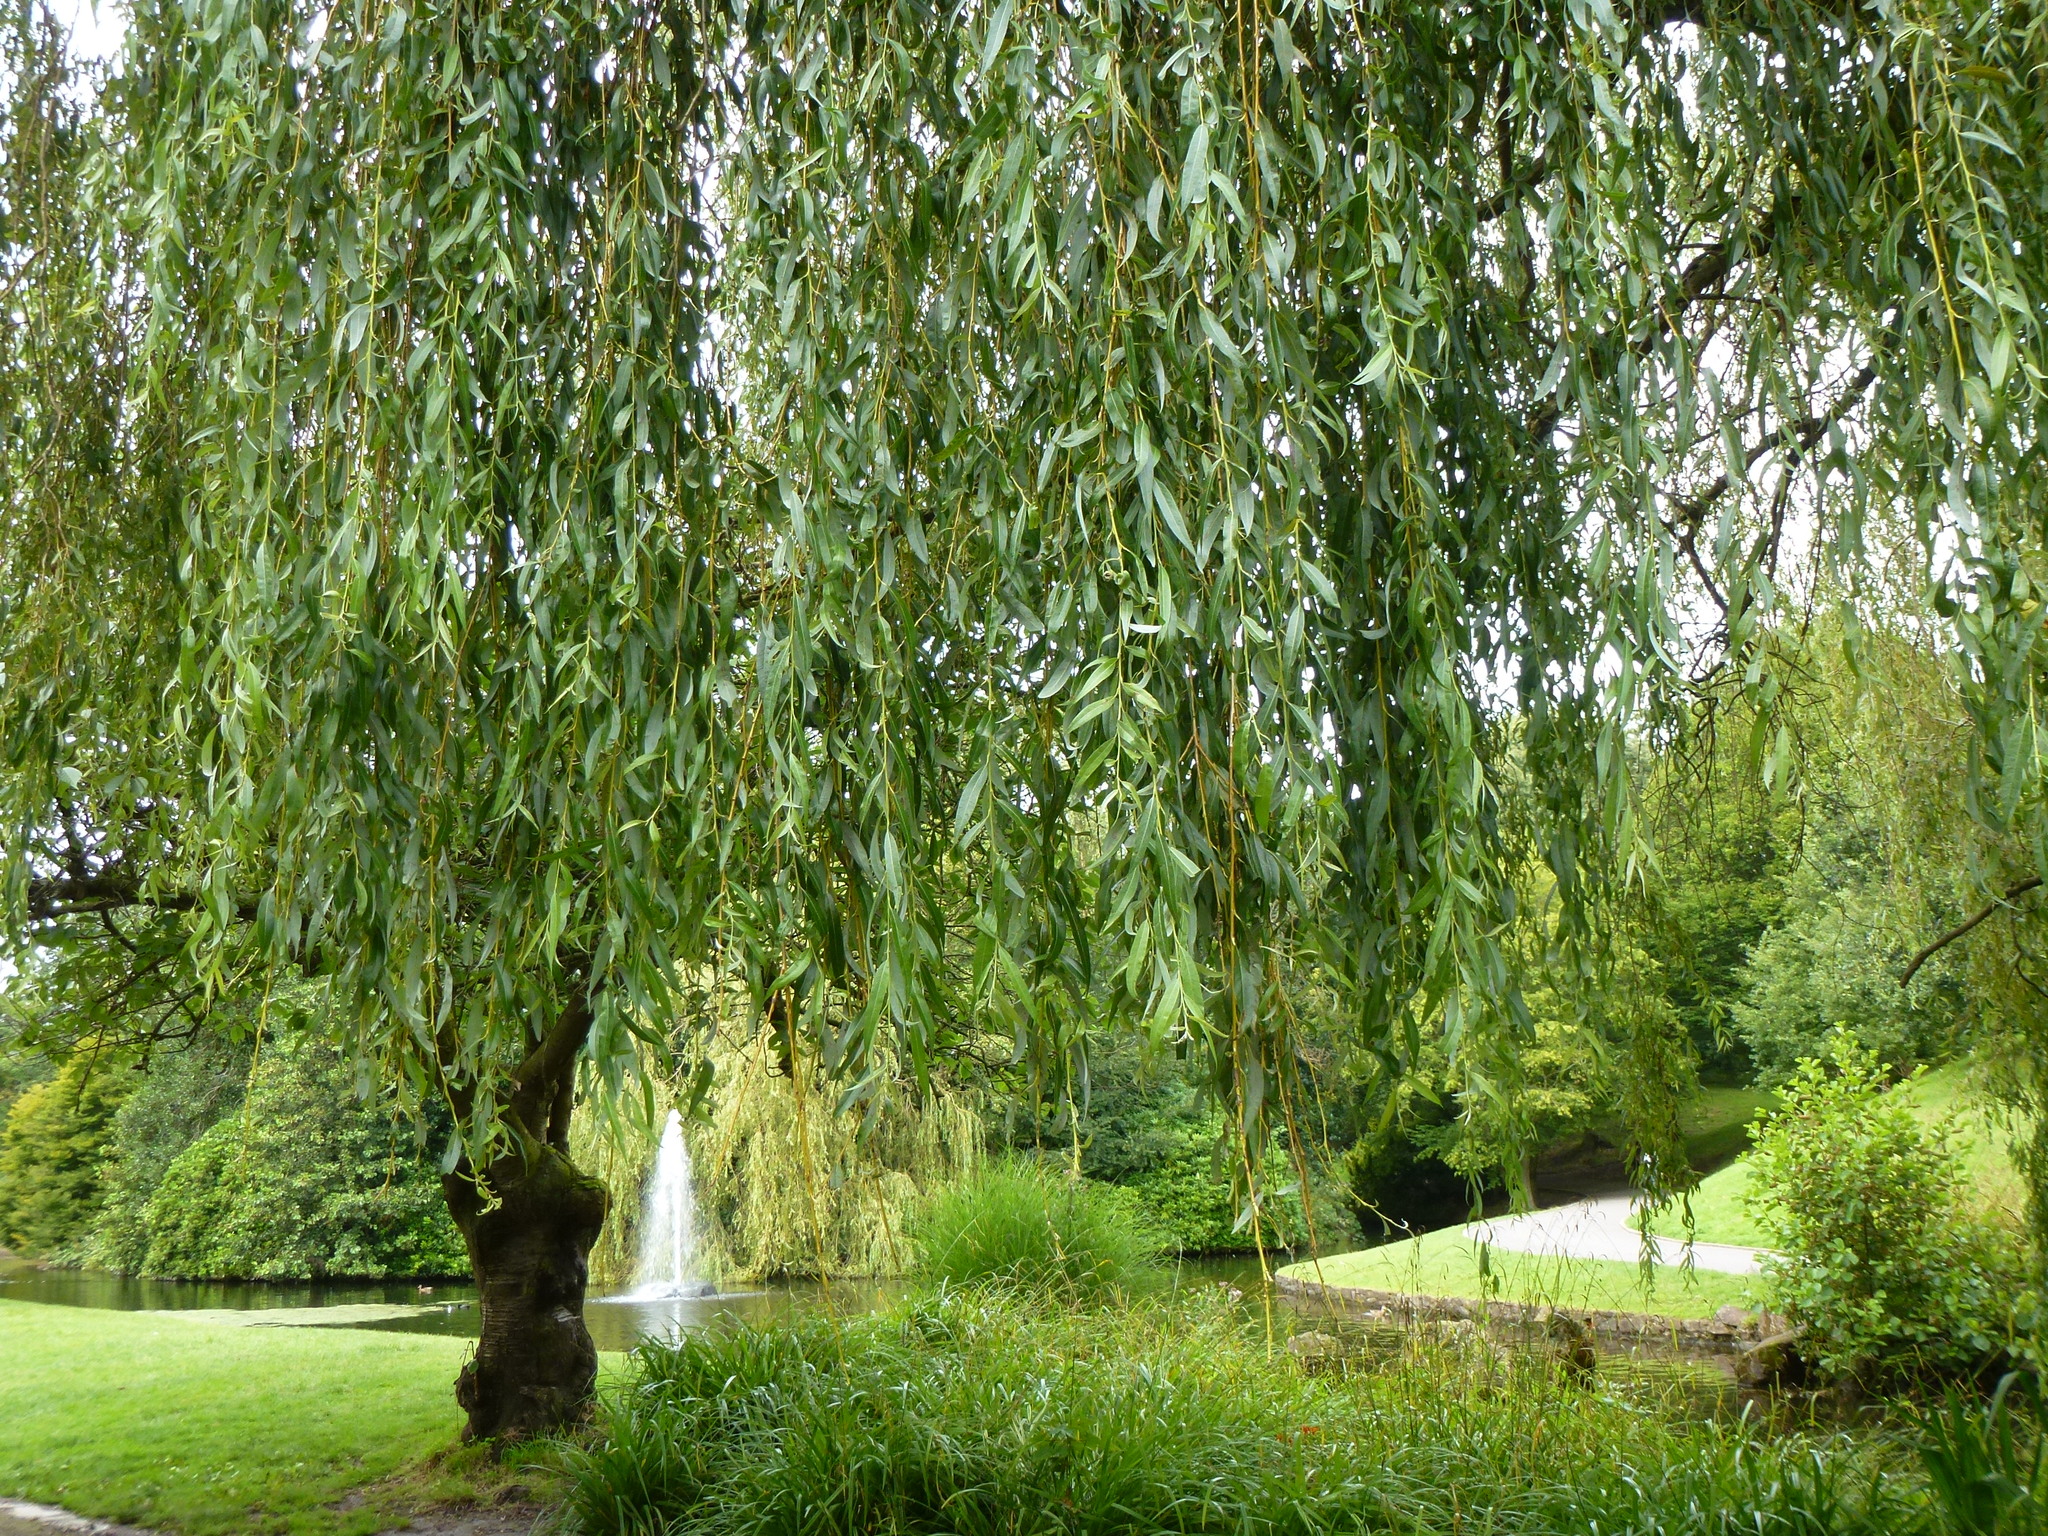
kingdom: Plantae
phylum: Tracheophyta
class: Magnoliopsida
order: Malpighiales
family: Salicaceae
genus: Salix
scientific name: Salix pendulina
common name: Wisconsin weeping willow
